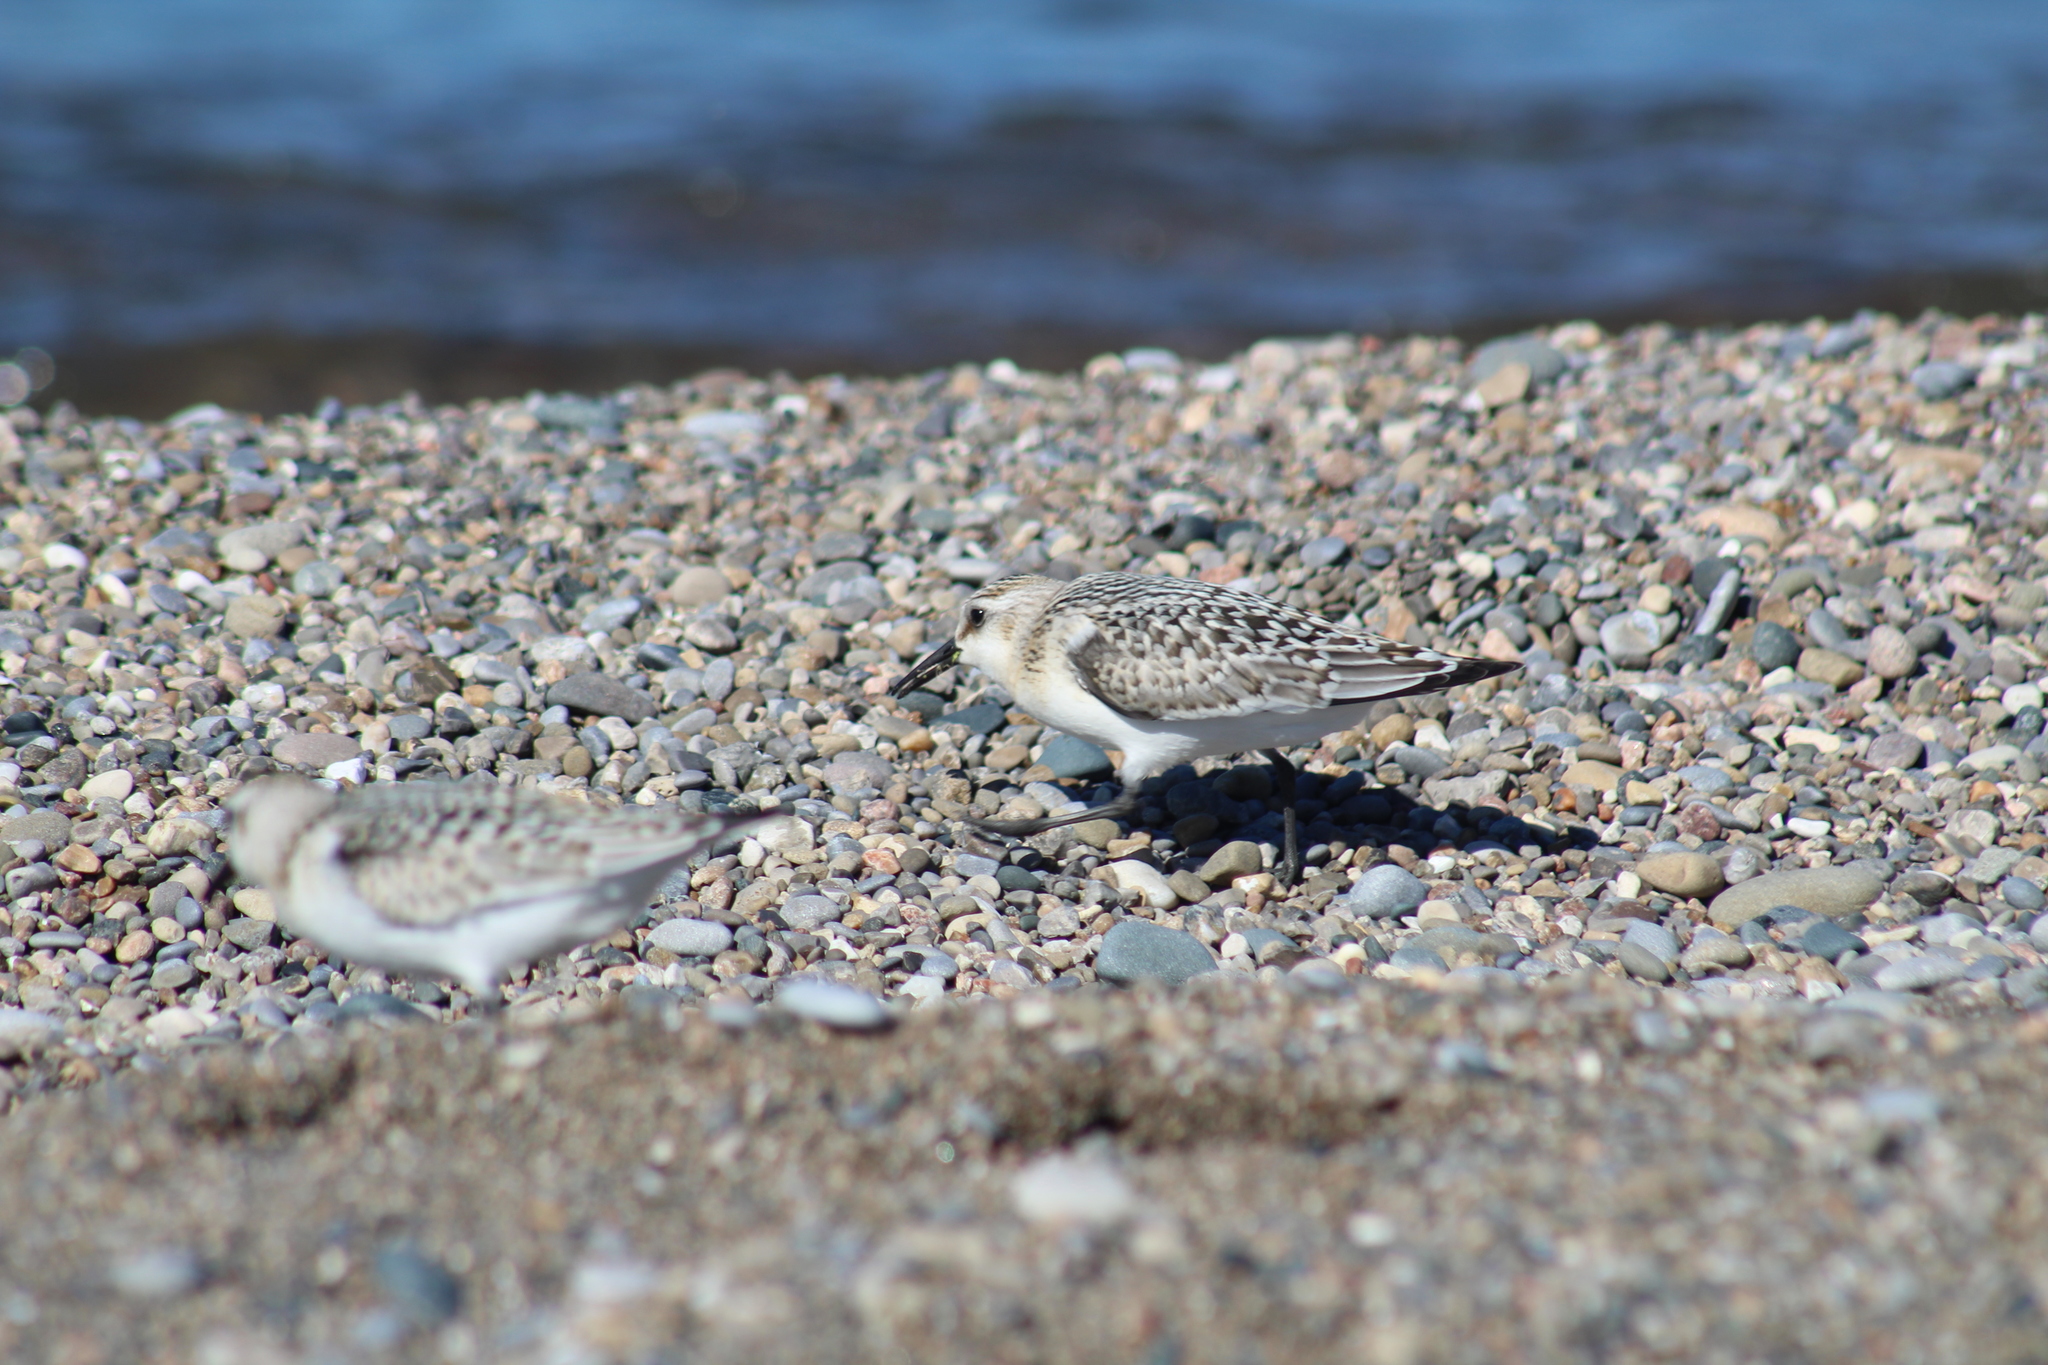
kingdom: Animalia
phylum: Chordata
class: Aves
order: Charadriiformes
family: Scolopacidae
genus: Calidris
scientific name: Calidris alba
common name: Sanderling
